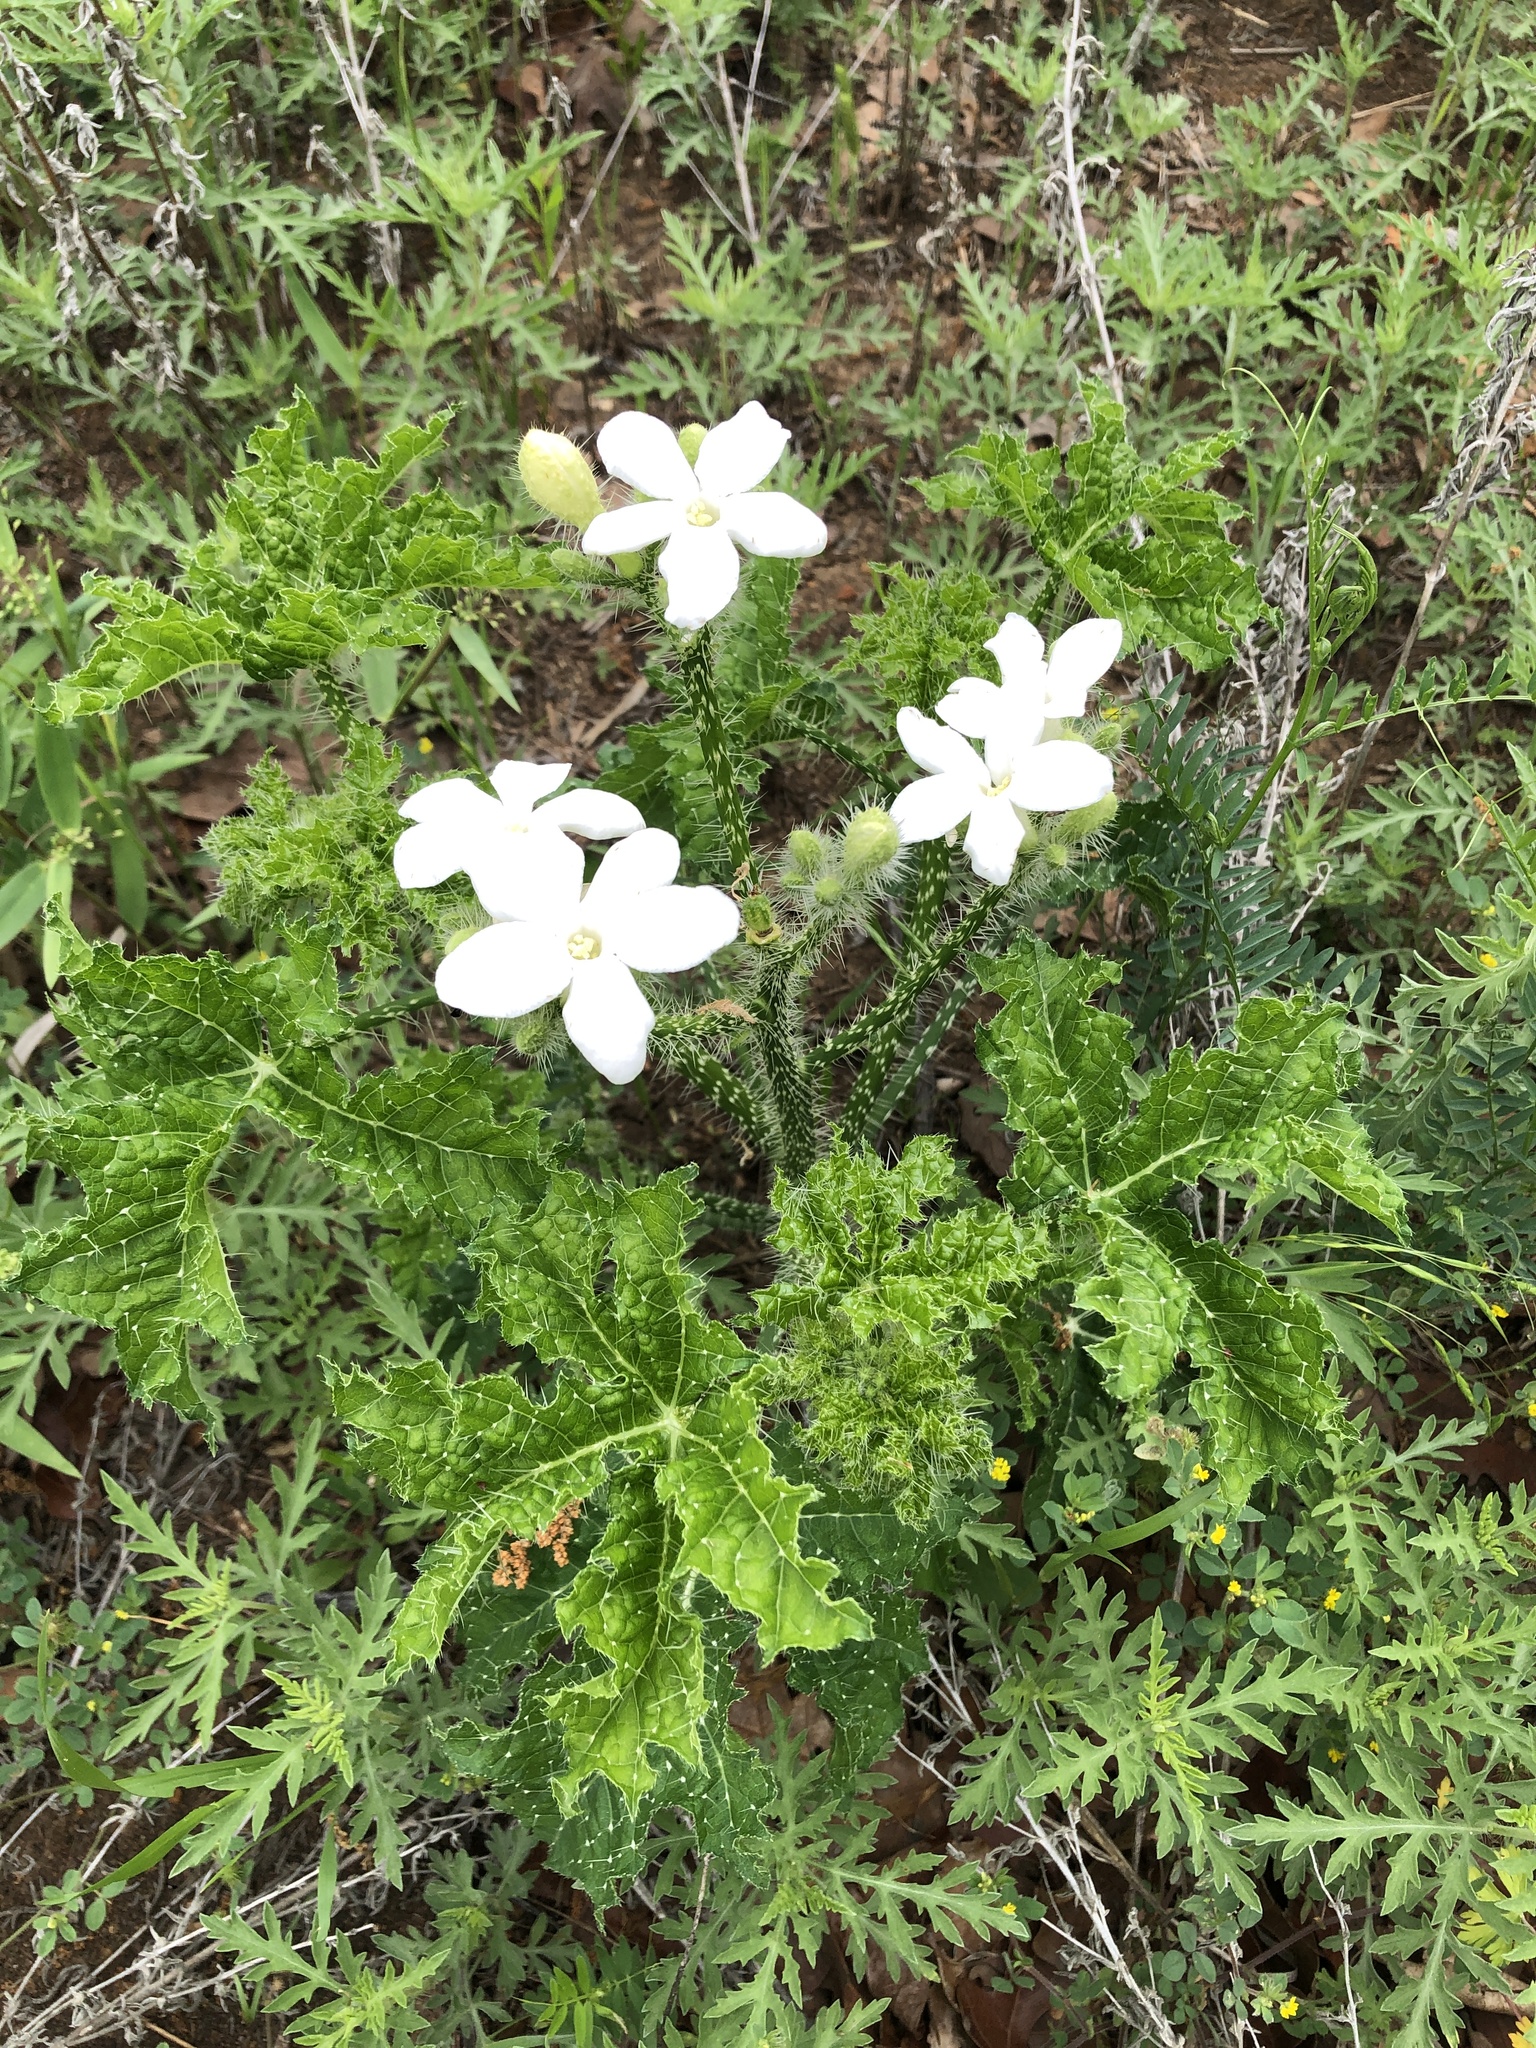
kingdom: Plantae
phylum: Tracheophyta
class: Magnoliopsida
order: Malpighiales
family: Euphorbiaceae
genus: Cnidoscolus
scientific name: Cnidoscolus texanus
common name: Texas bull-nettle
